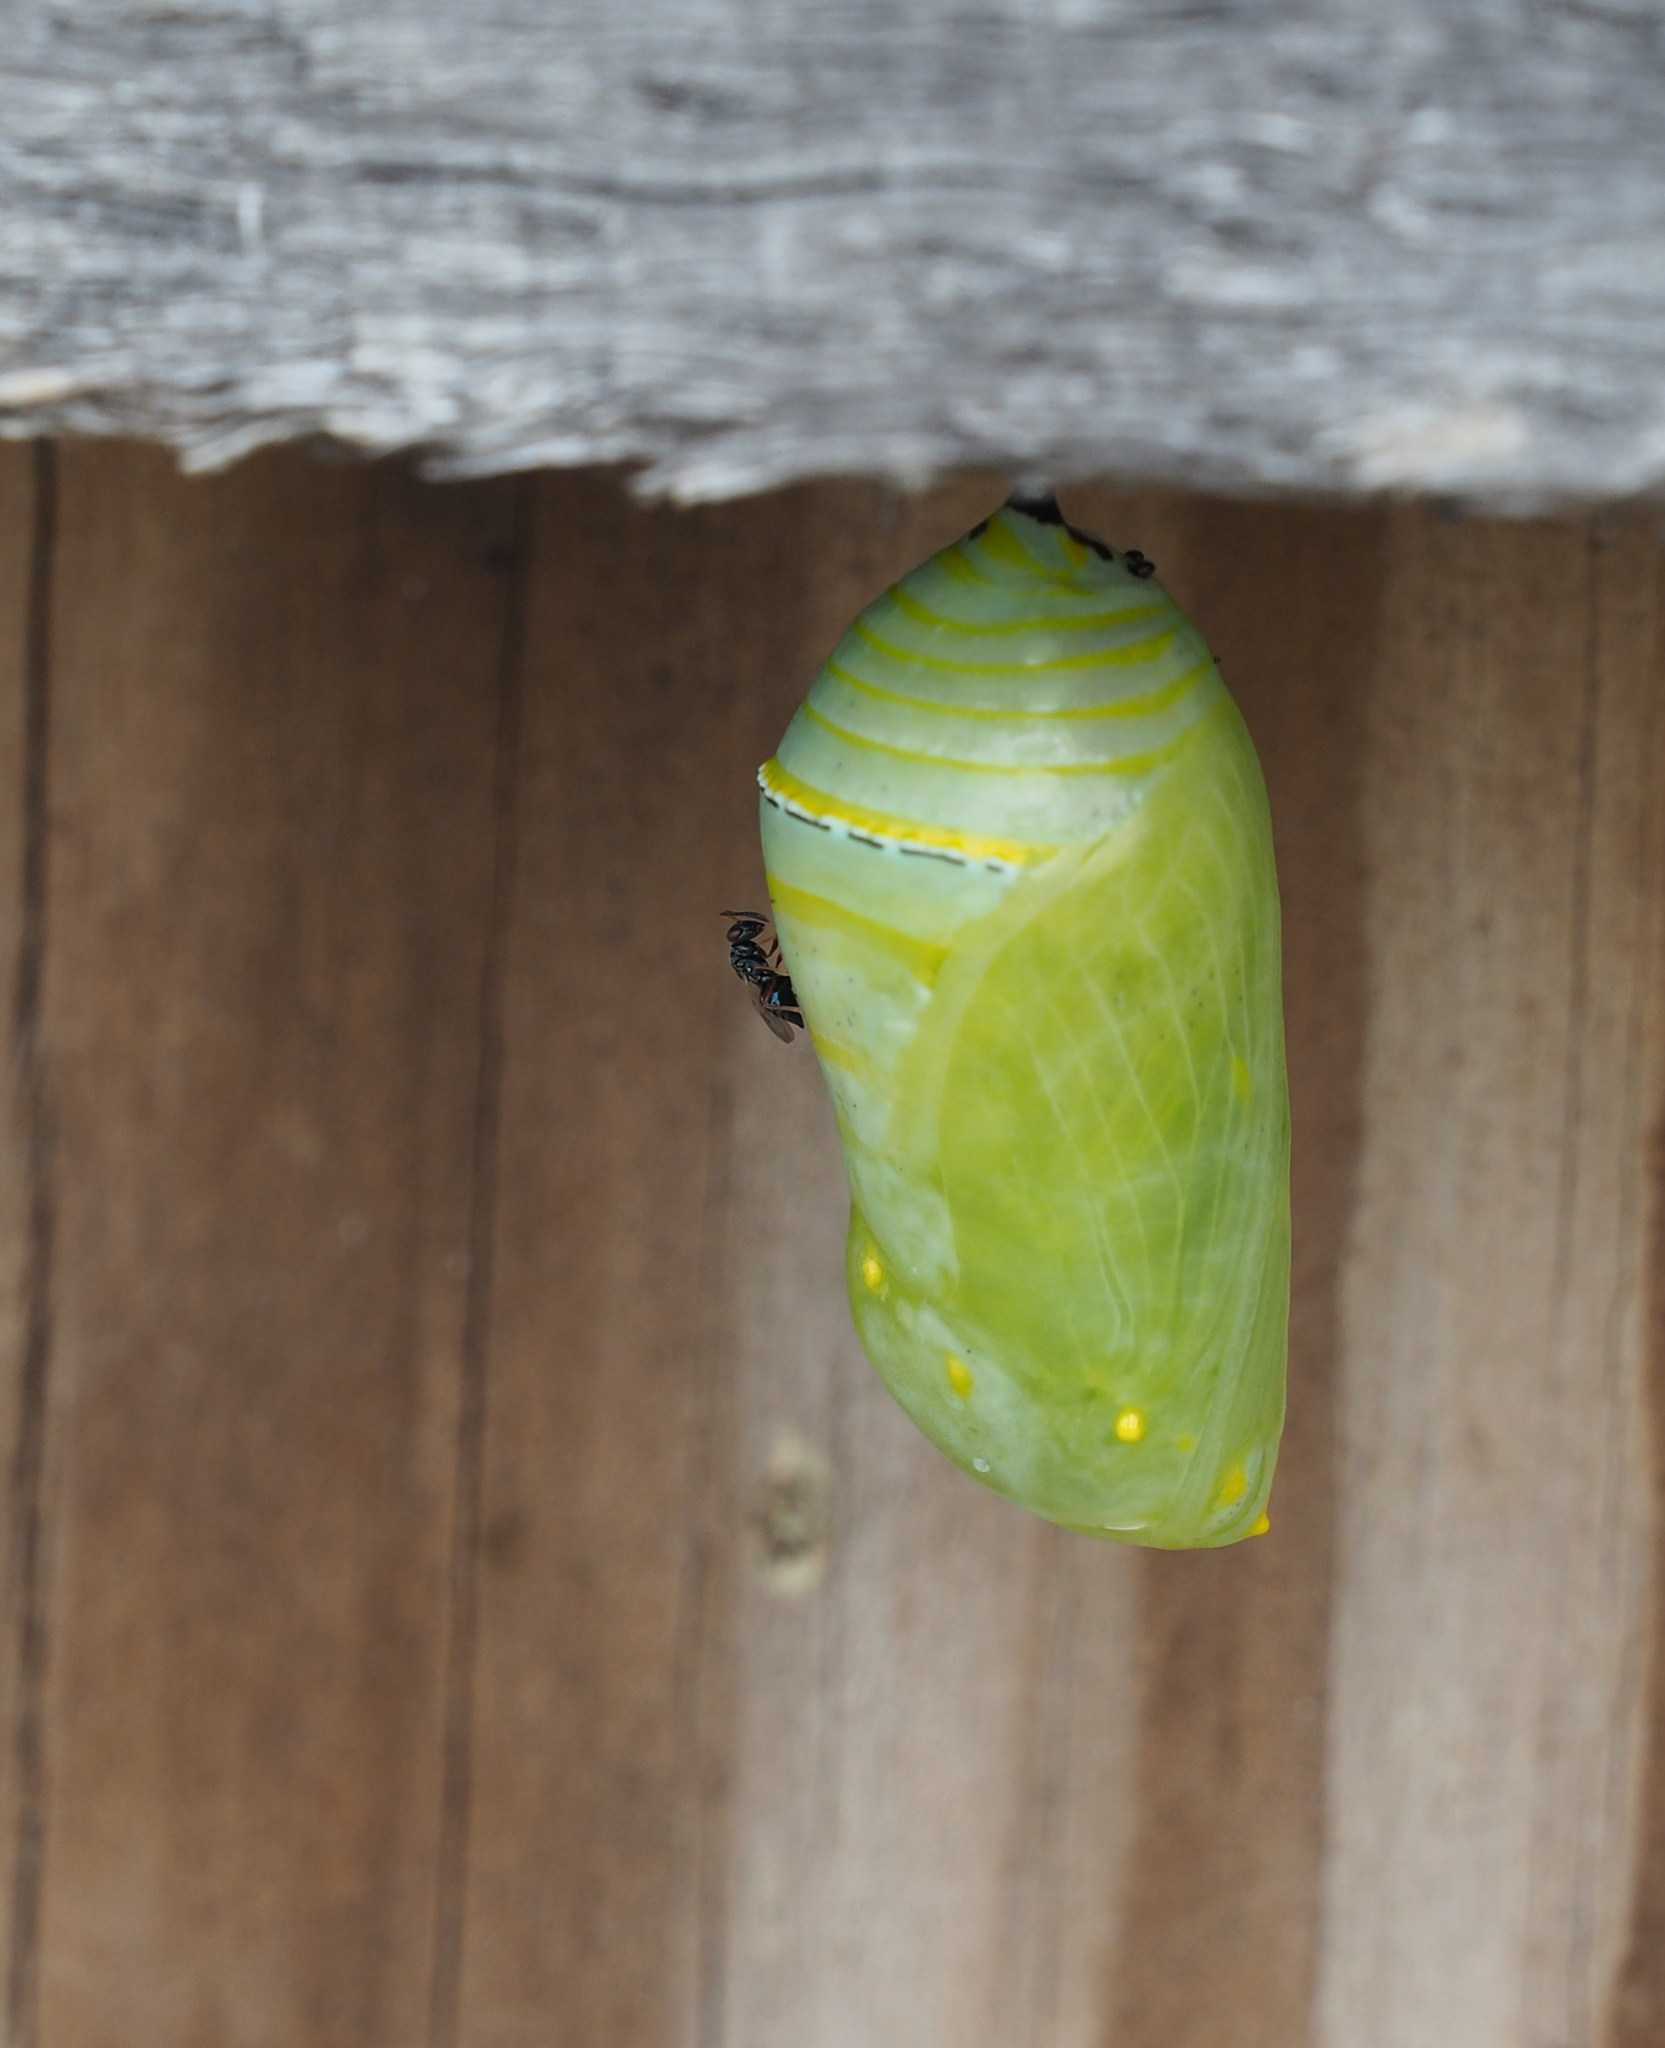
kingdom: Animalia
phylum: Arthropoda
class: Insecta
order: Lepidoptera
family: Nymphalidae
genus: Danaus
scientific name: Danaus plexippus
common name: Monarch
